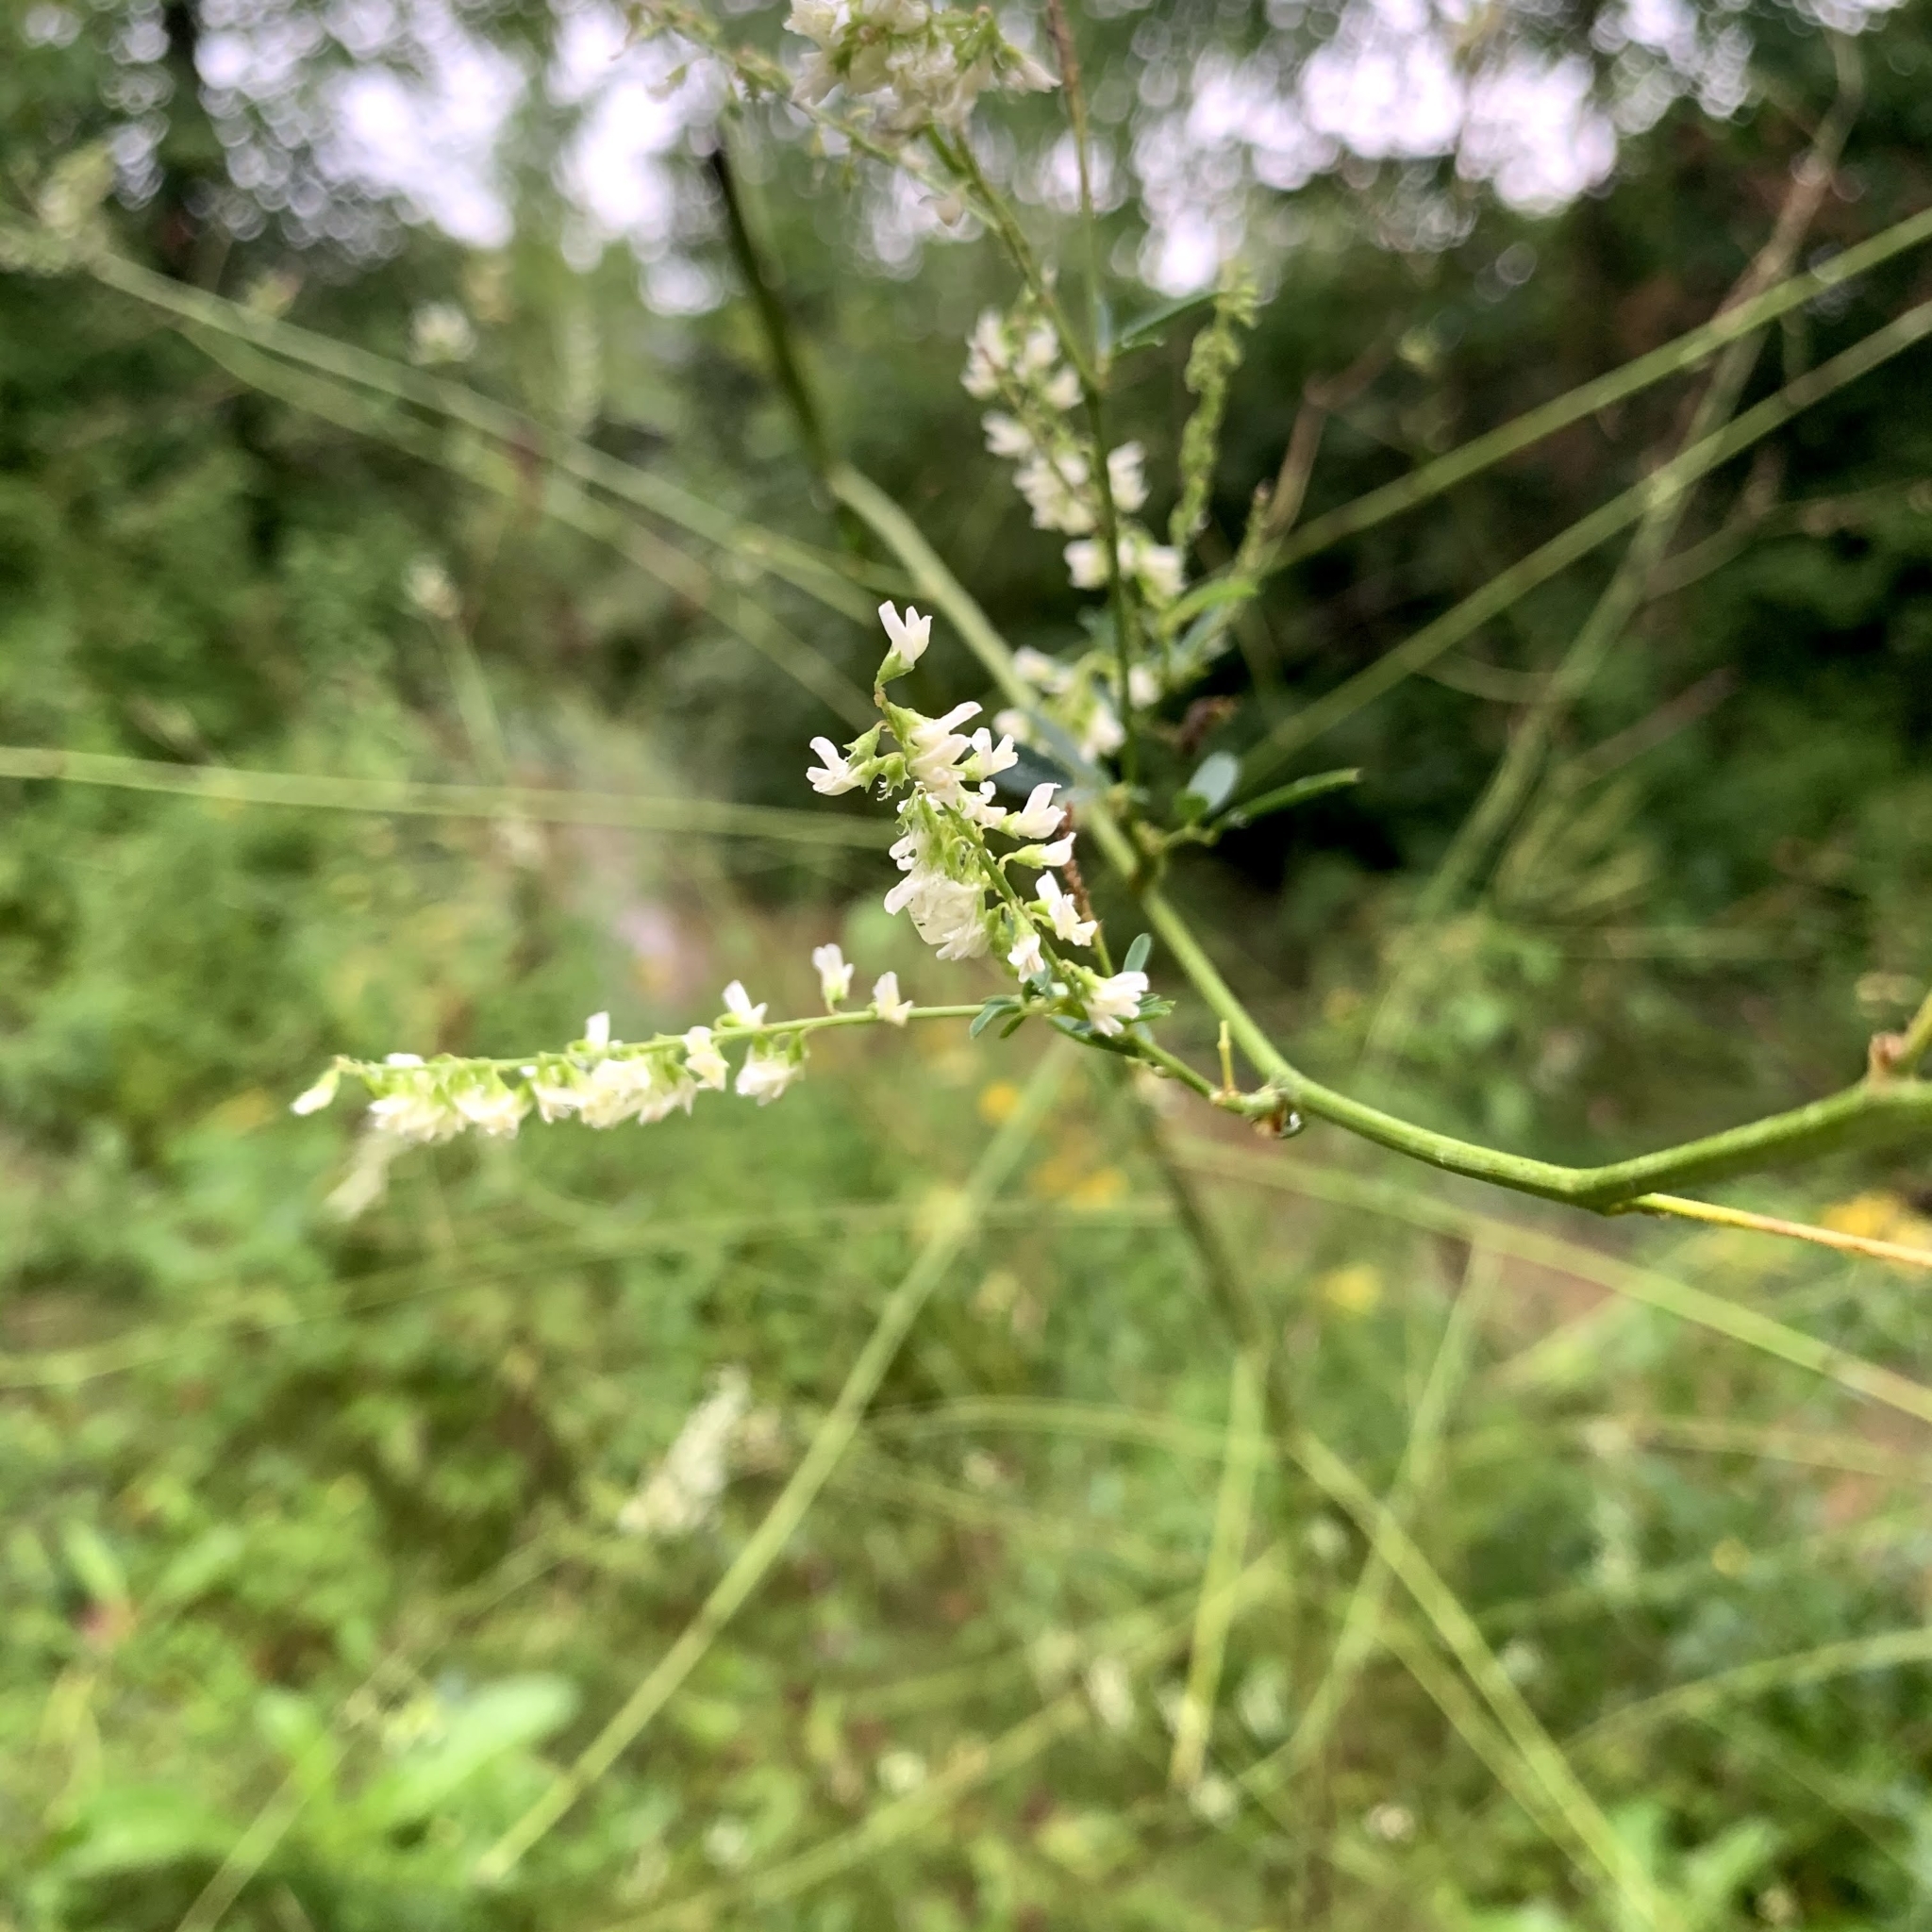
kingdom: Plantae
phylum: Tracheophyta
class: Magnoliopsida
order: Fabales
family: Fabaceae
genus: Melilotus
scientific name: Melilotus albus
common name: White melilot
